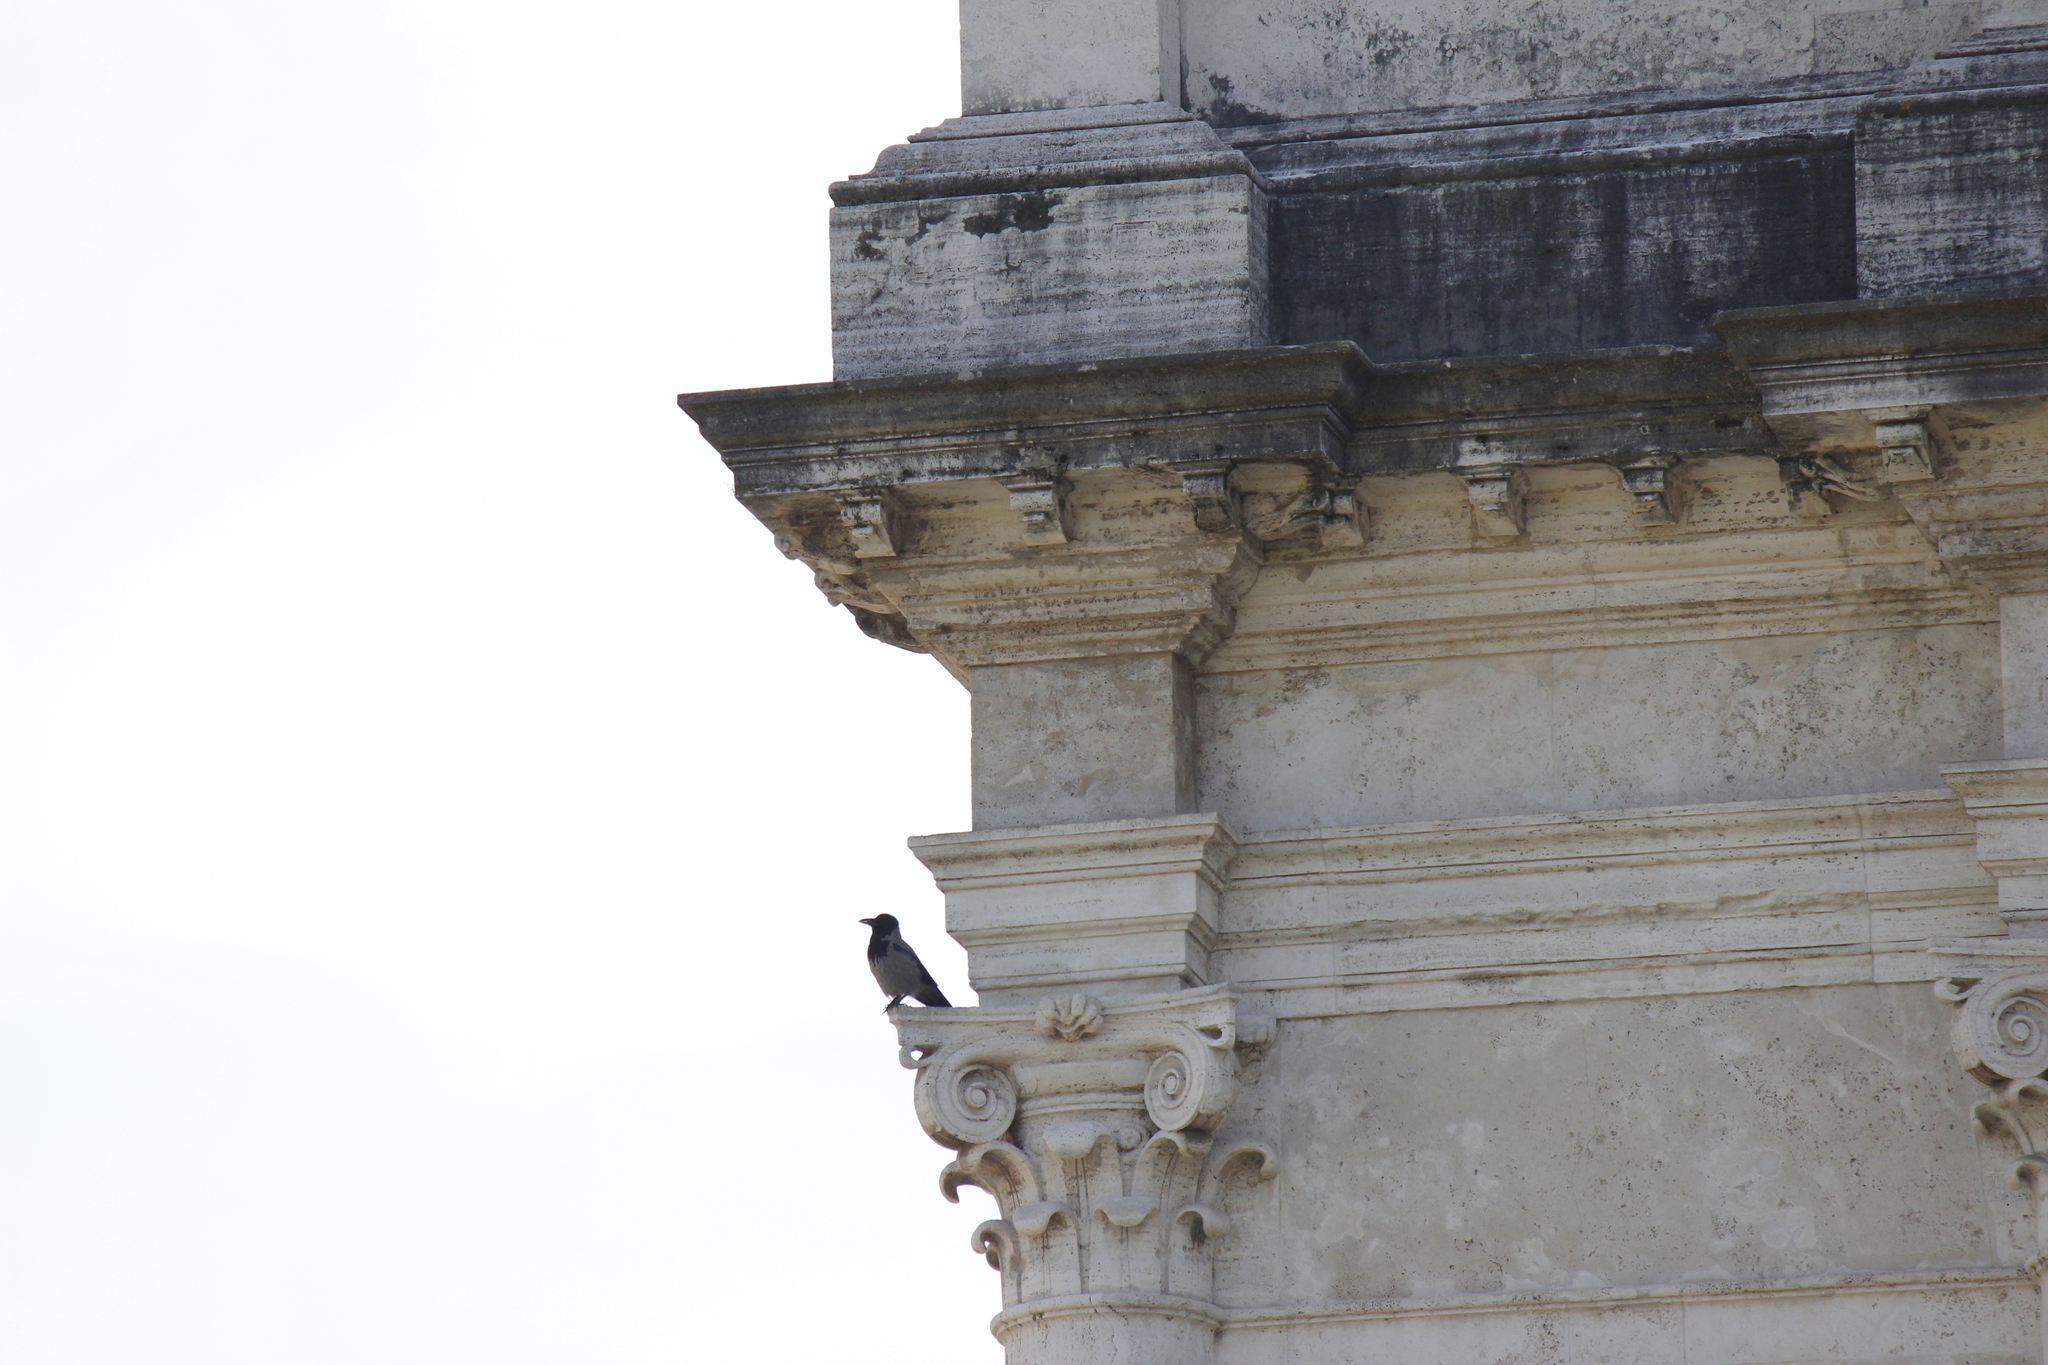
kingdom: Animalia
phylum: Chordata
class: Aves
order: Passeriformes
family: Corvidae
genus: Corvus
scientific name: Corvus cornix
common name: Hooded crow
